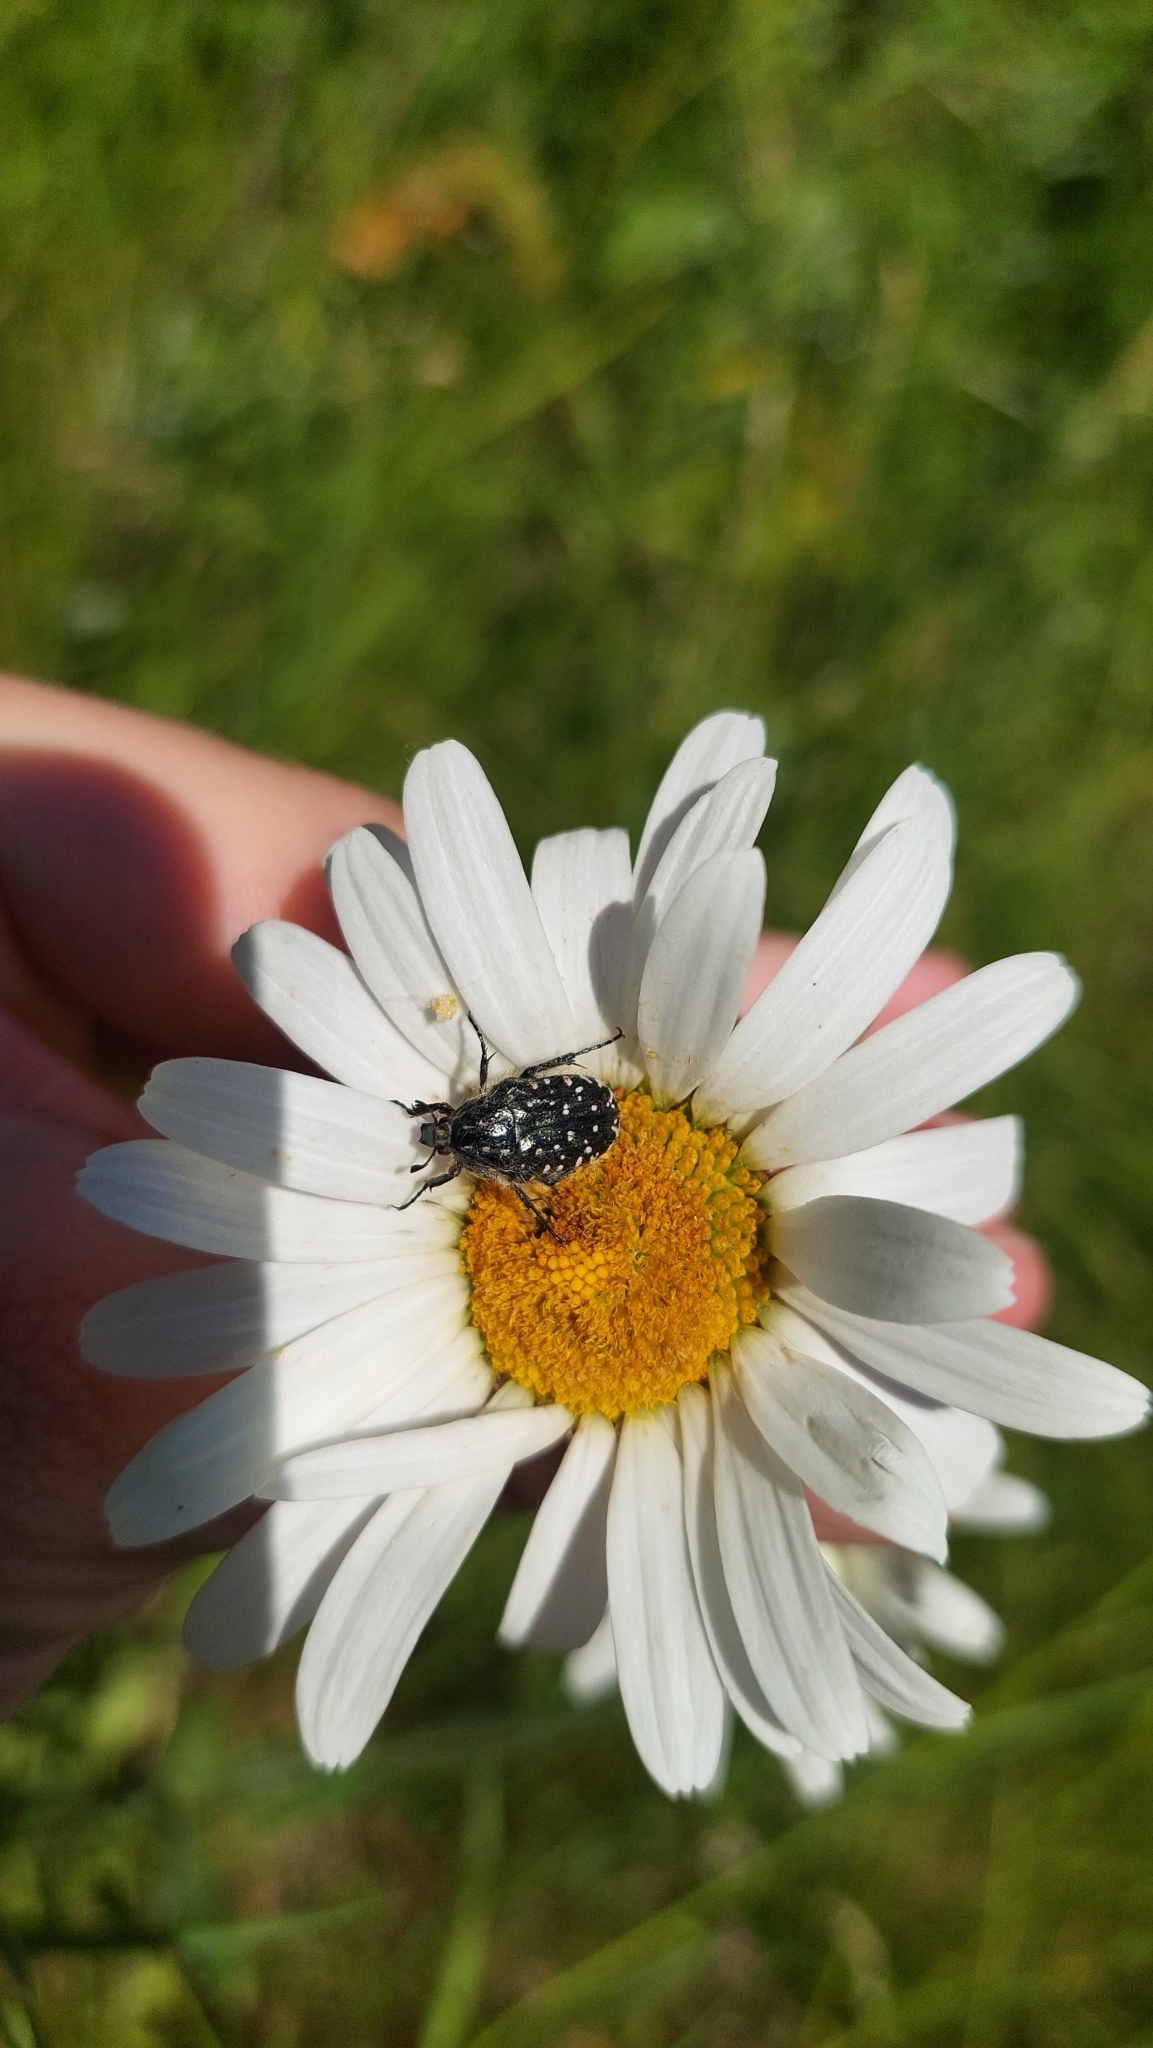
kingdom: Animalia
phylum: Arthropoda
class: Insecta
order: Coleoptera
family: Scarabaeidae
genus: Oxythyrea
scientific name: Oxythyrea funesta
